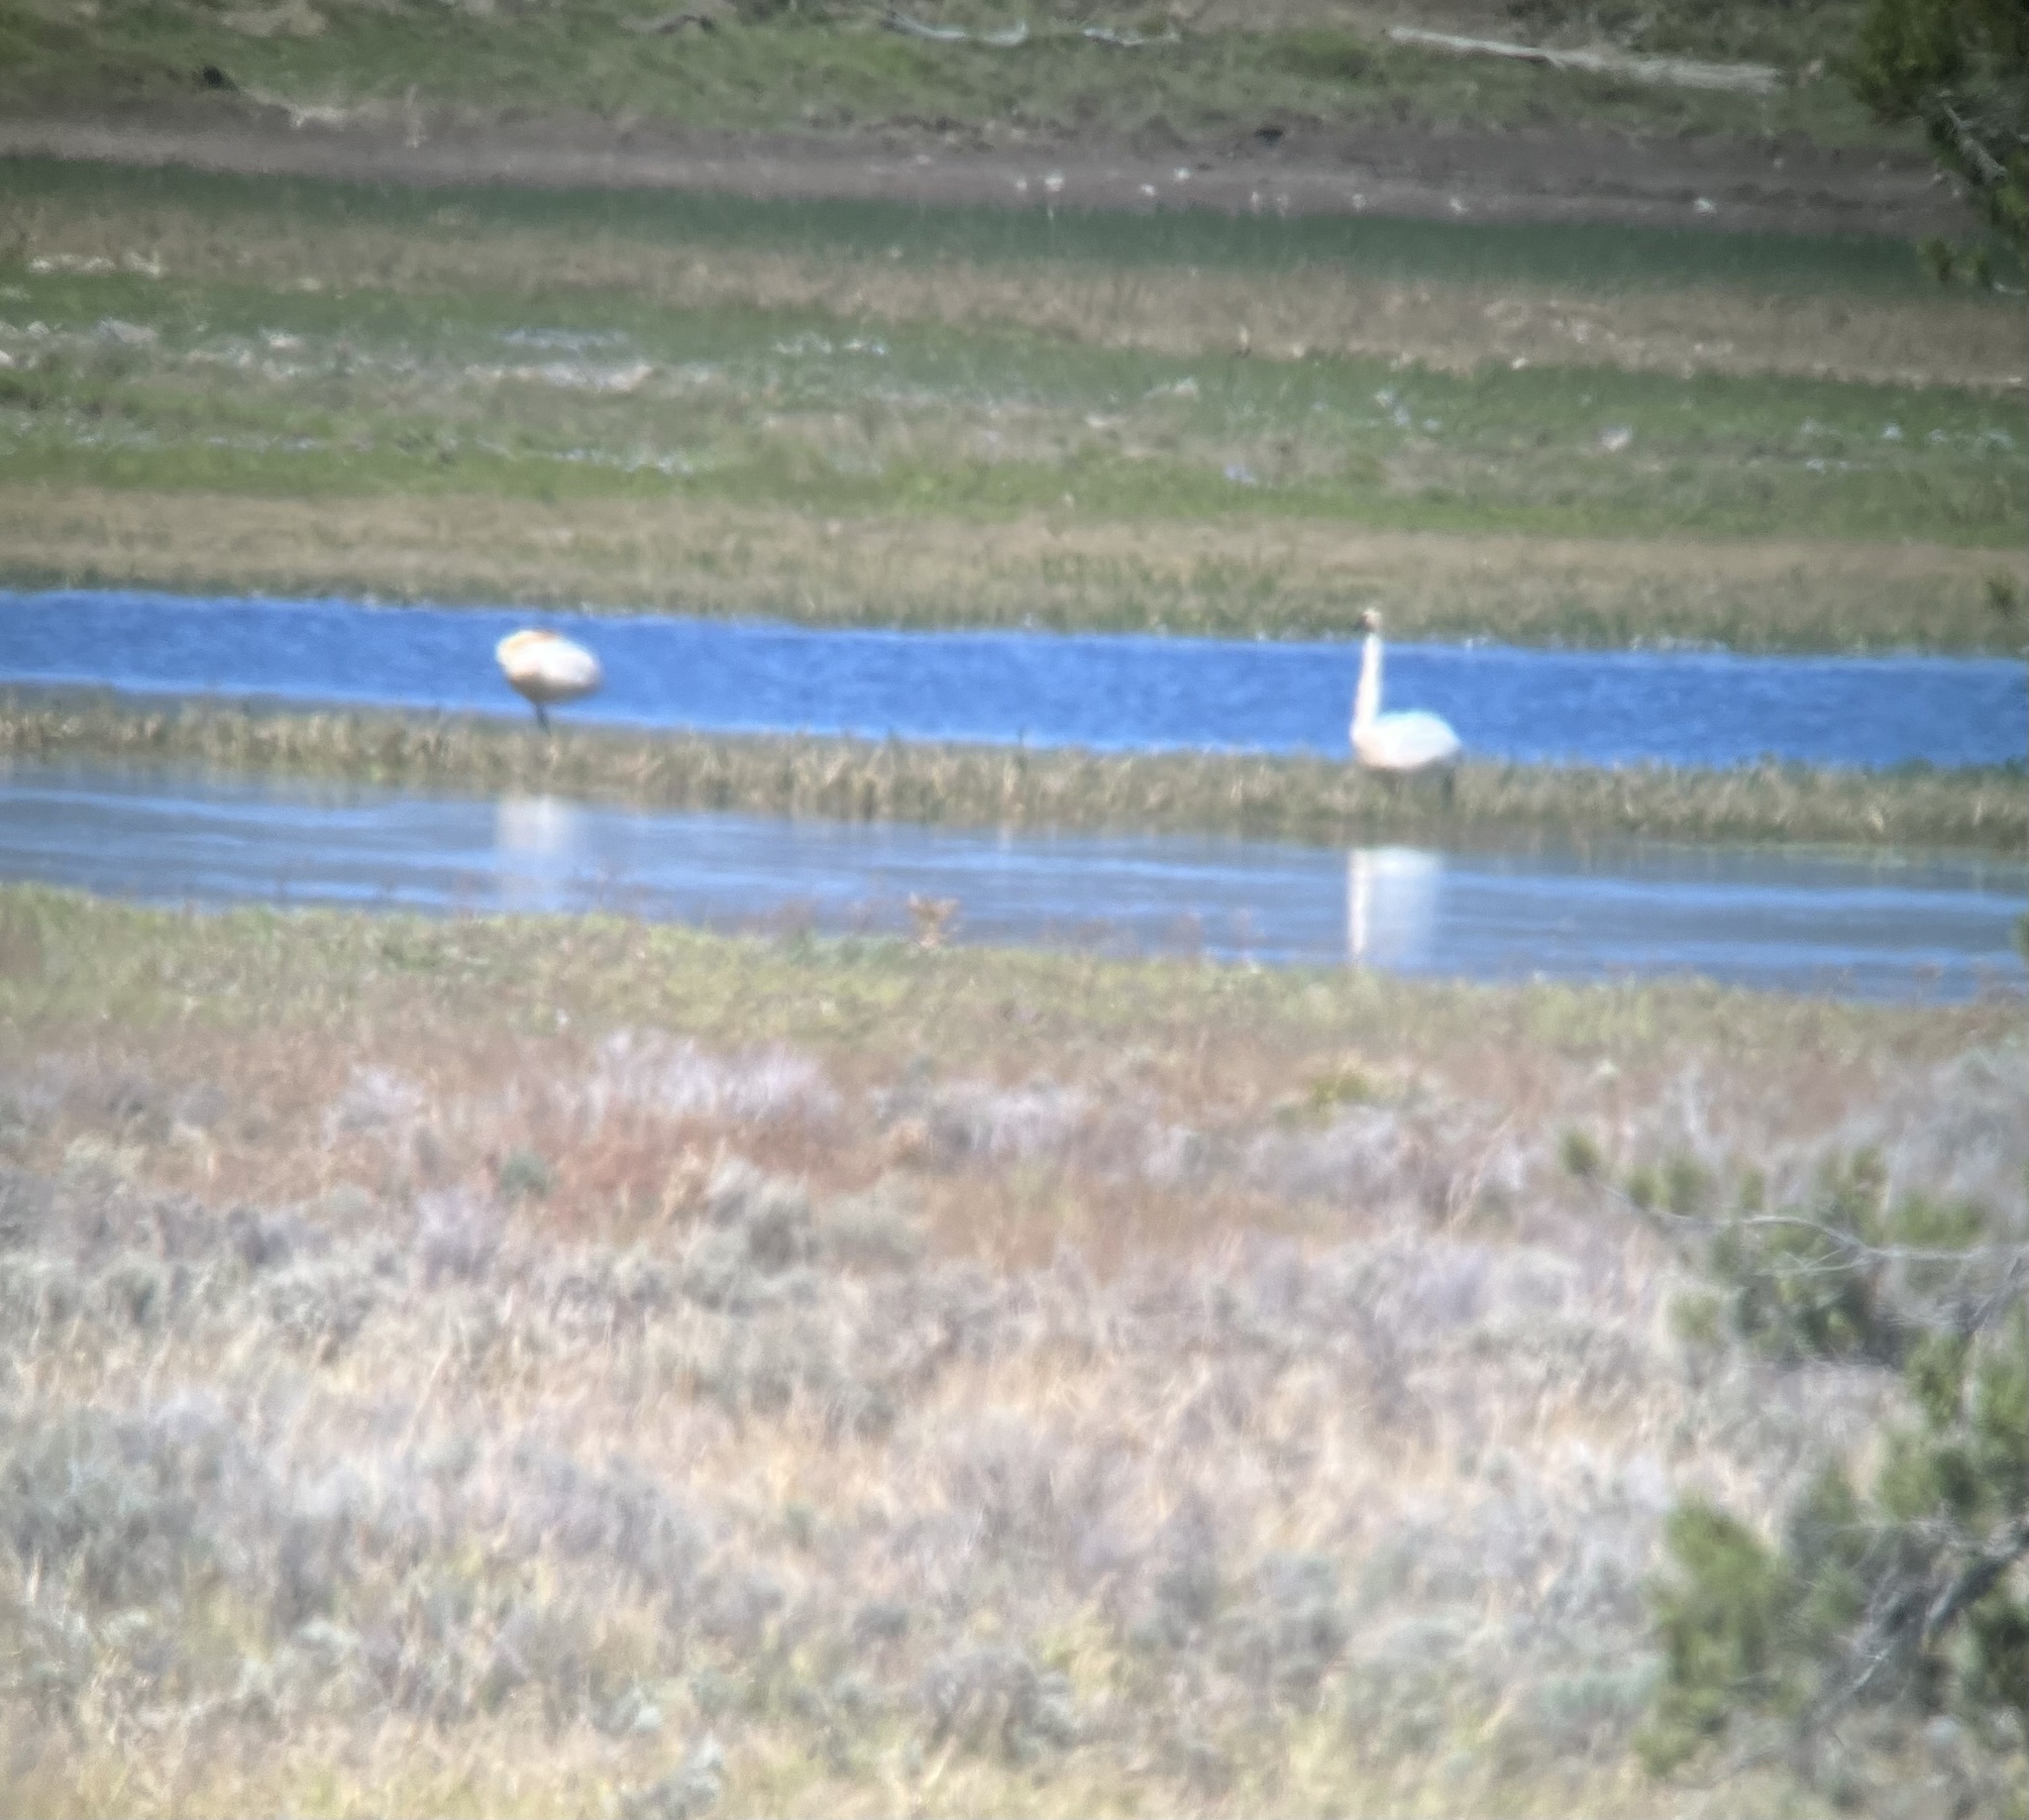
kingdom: Animalia
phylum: Chordata
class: Aves
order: Anseriformes
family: Anatidae
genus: Cygnus
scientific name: Cygnus buccinator
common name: Trumpeter swan
